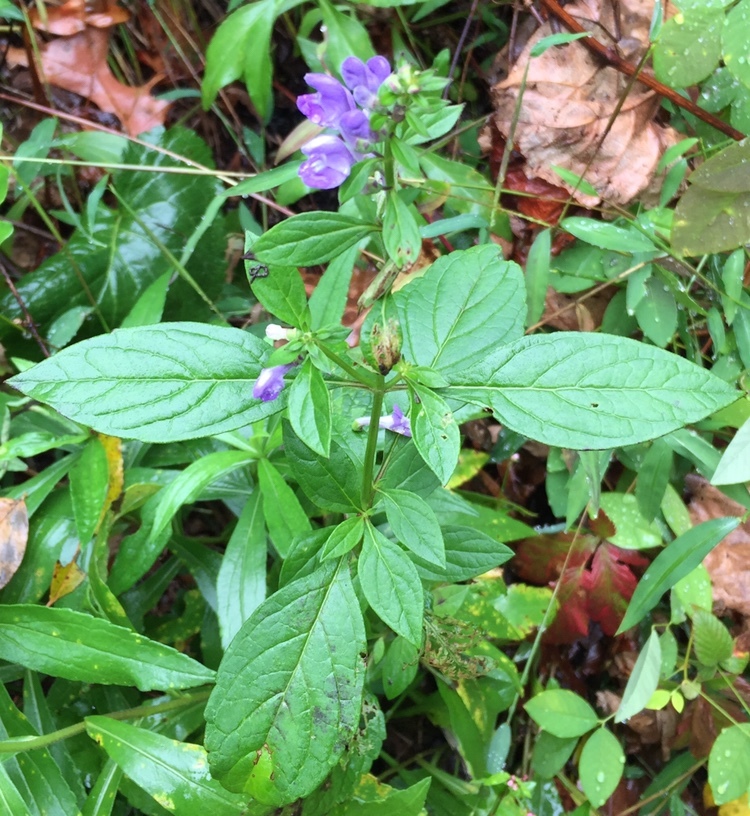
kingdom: Plantae
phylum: Tracheophyta
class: Magnoliopsida
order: Lamiales
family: Lamiaceae
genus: Scutellaria
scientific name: Scutellaria integrifolia
